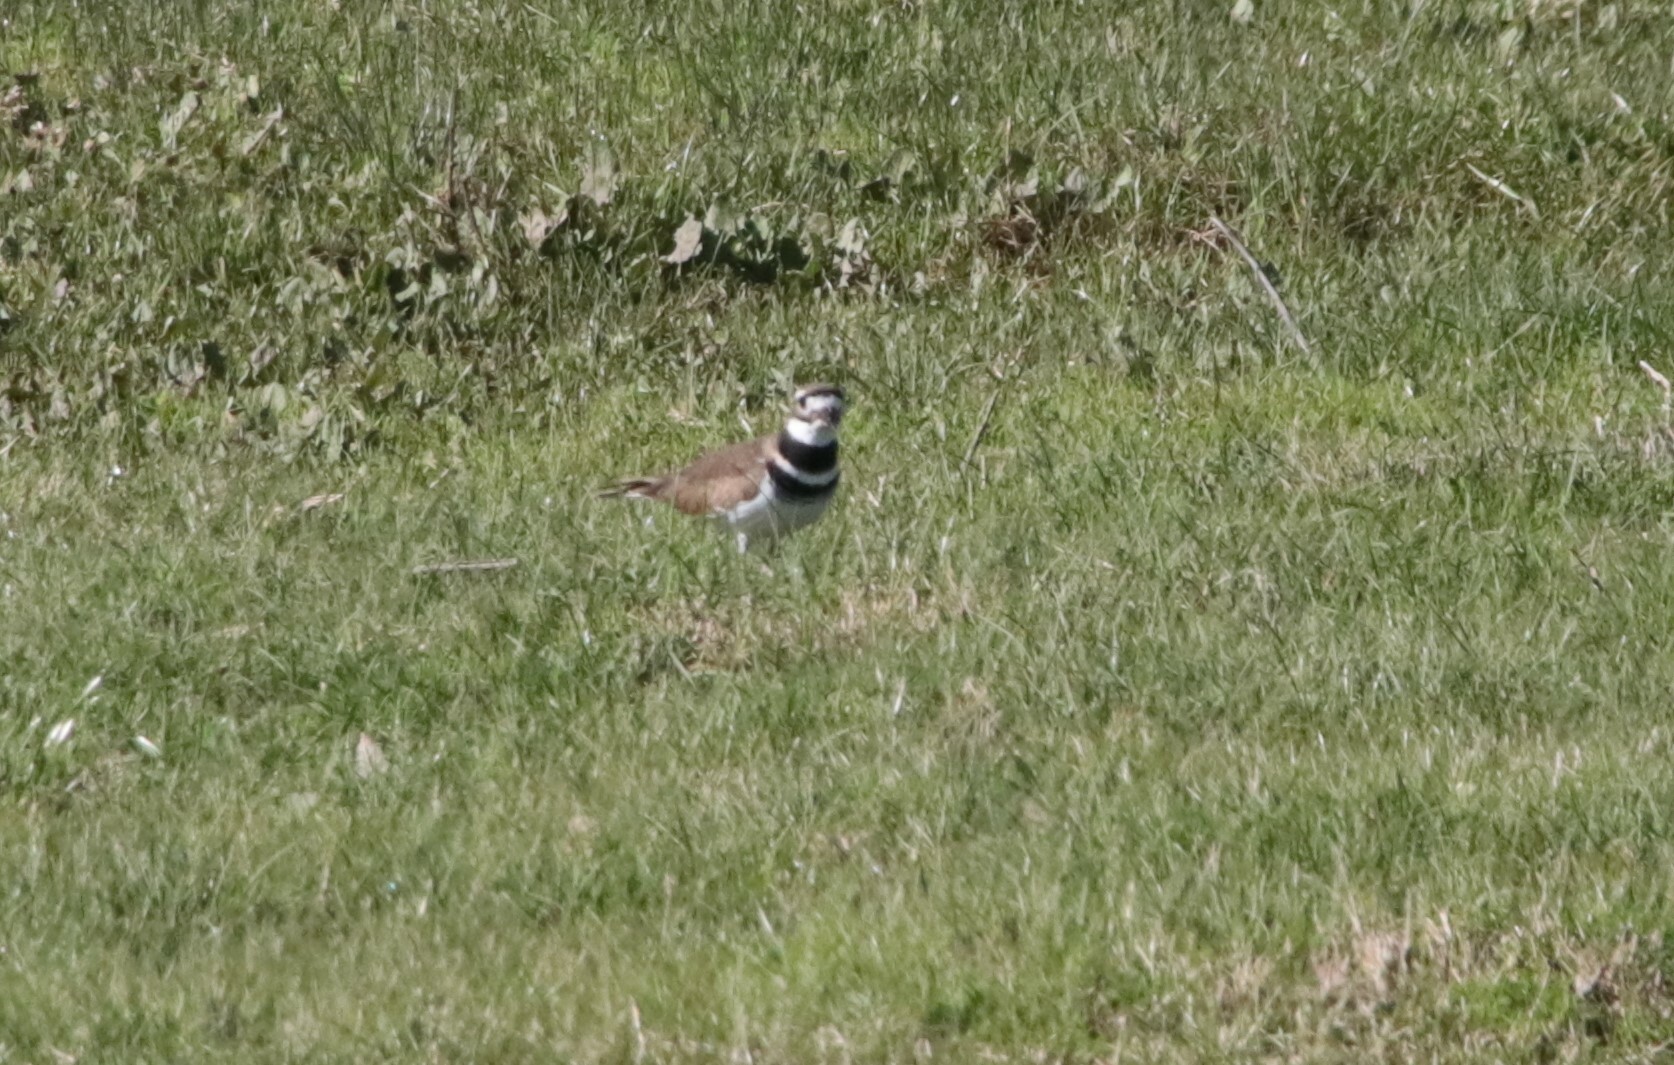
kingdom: Animalia
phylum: Chordata
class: Aves
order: Charadriiformes
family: Charadriidae
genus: Charadrius
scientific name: Charadrius vociferus
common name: Killdeer
